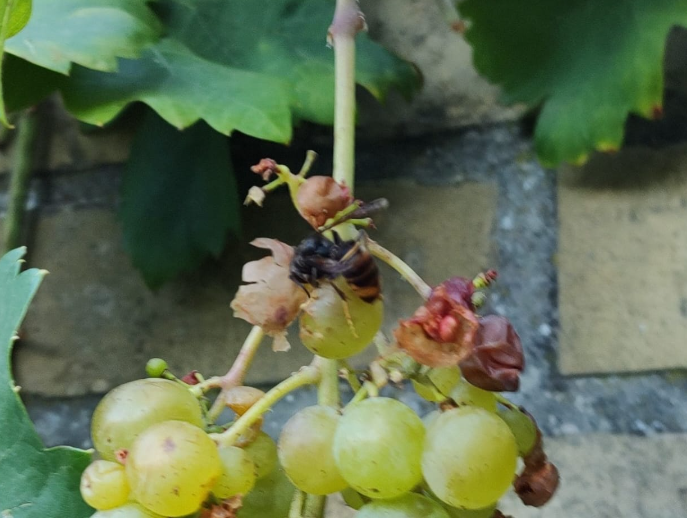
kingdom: Animalia
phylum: Arthropoda
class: Insecta
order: Hymenoptera
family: Vespidae
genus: Vespa
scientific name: Vespa velutina
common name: Asian hornet
